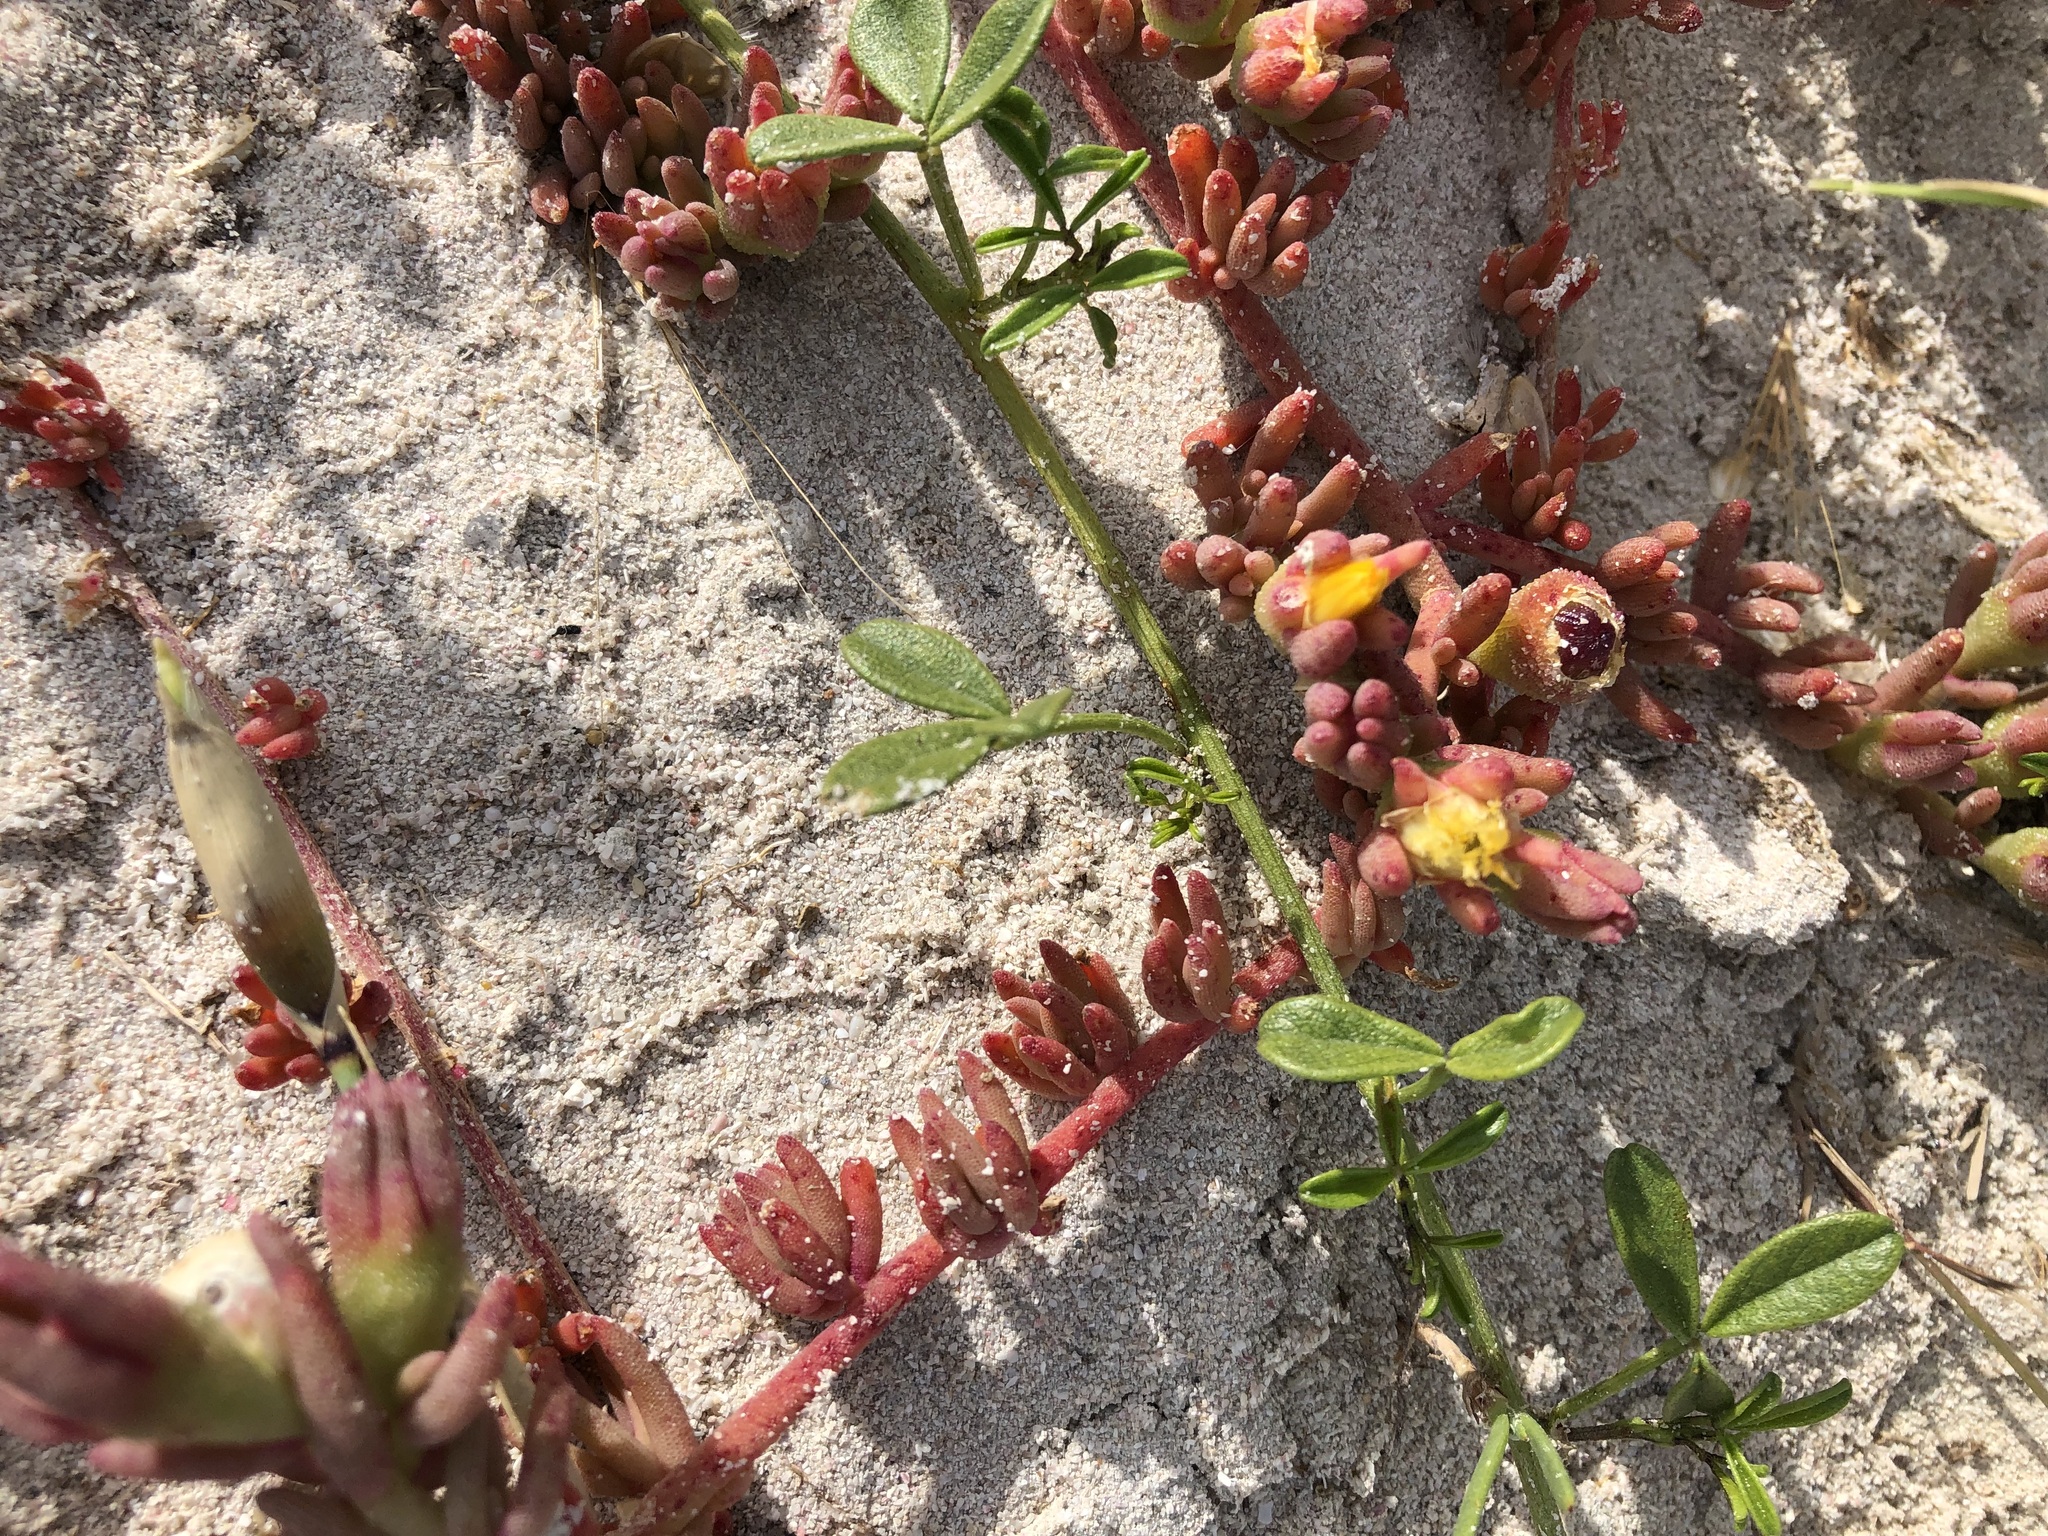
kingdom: Plantae
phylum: Tracheophyta
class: Magnoliopsida
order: Caryophyllales
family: Aizoaceae
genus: Mesembryanthemum
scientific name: Mesembryanthemum canaliculatum
